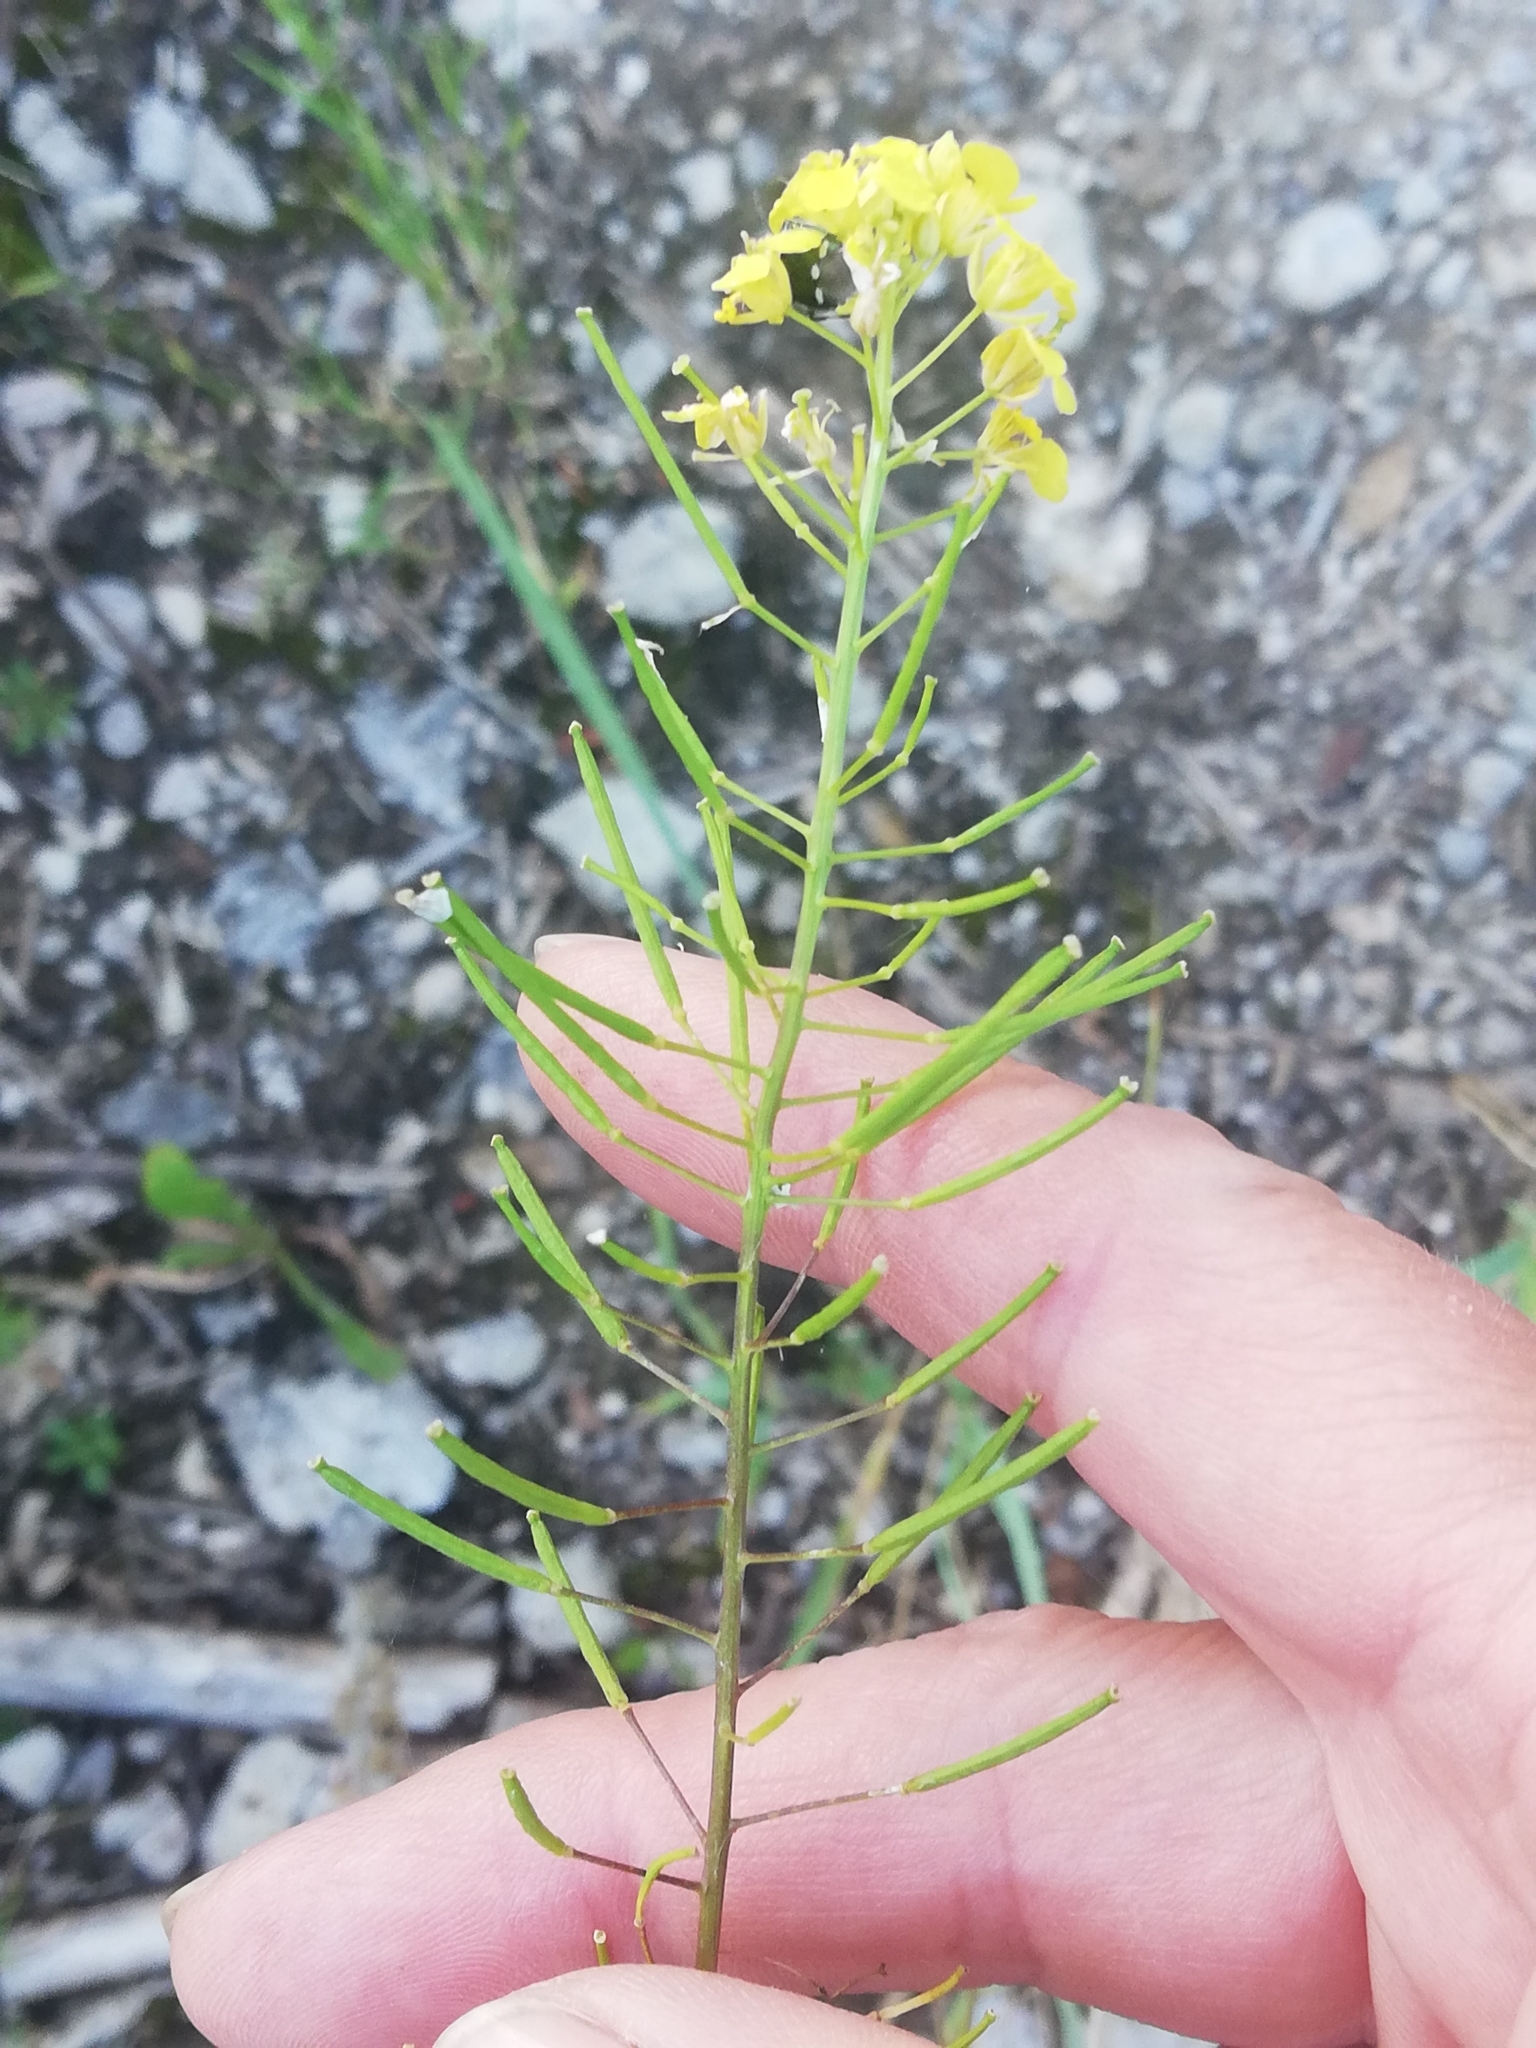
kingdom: Plantae
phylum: Tracheophyta
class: Magnoliopsida
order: Brassicales
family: Brassicaceae
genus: Sisymbrium
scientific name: Sisymbrium loeselii
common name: False london-rocket
